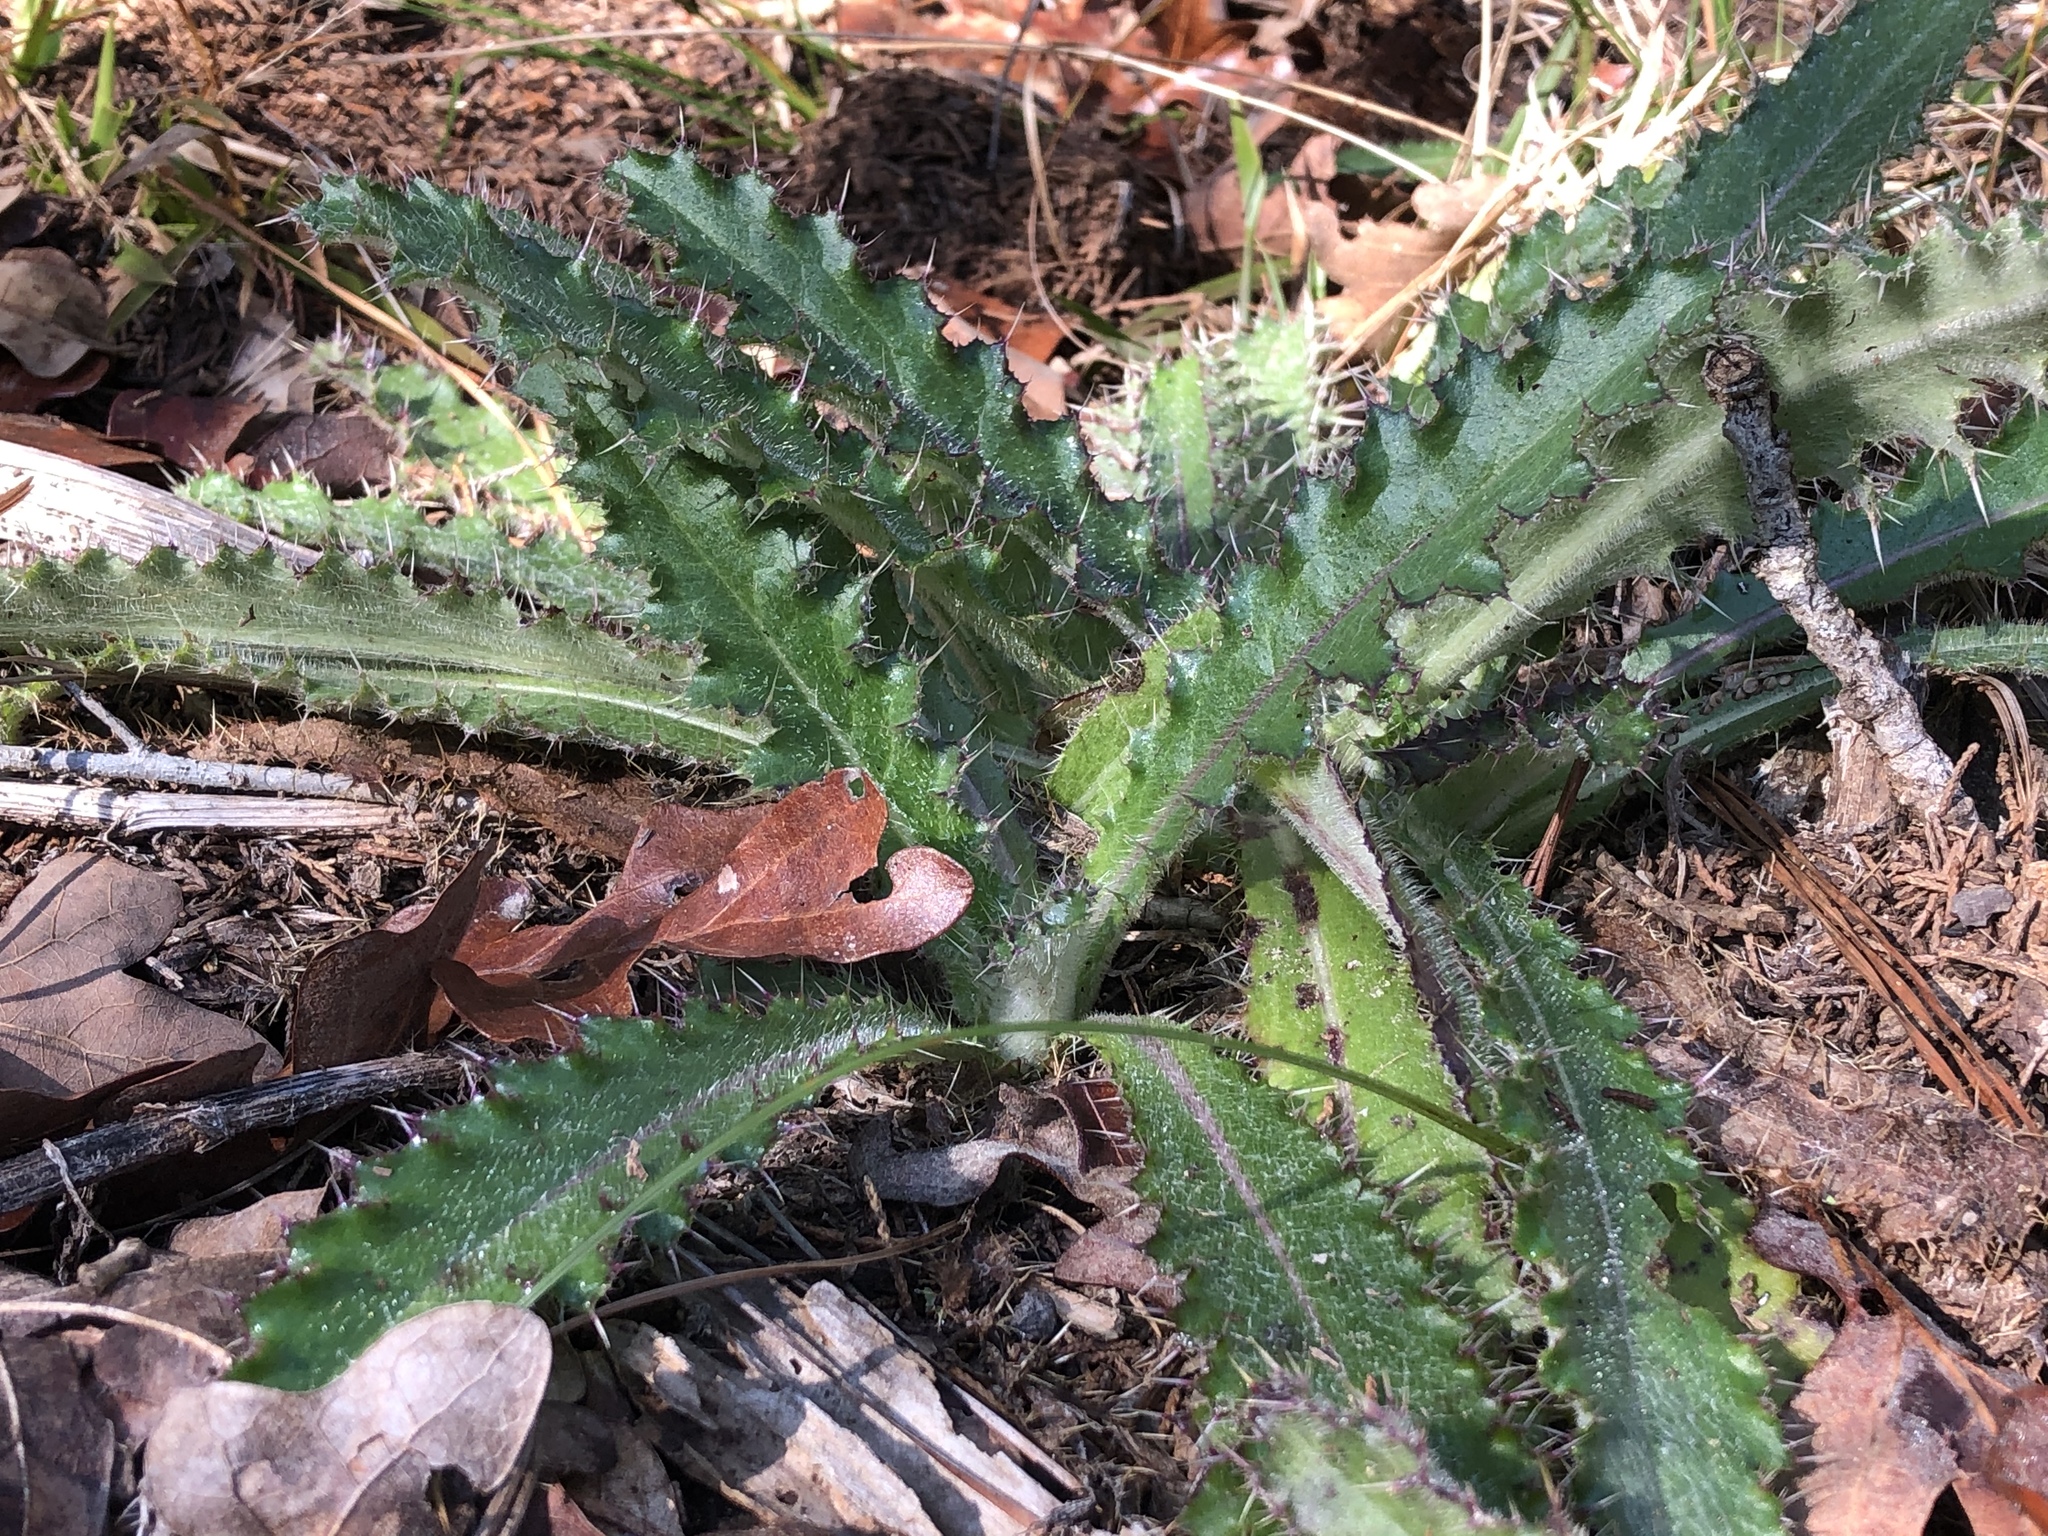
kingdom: Plantae
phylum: Tracheophyta
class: Magnoliopsida
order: Asterales
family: Asteraceae
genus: Cirsium
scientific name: Cirsium horridulum
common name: Bristly thistle
